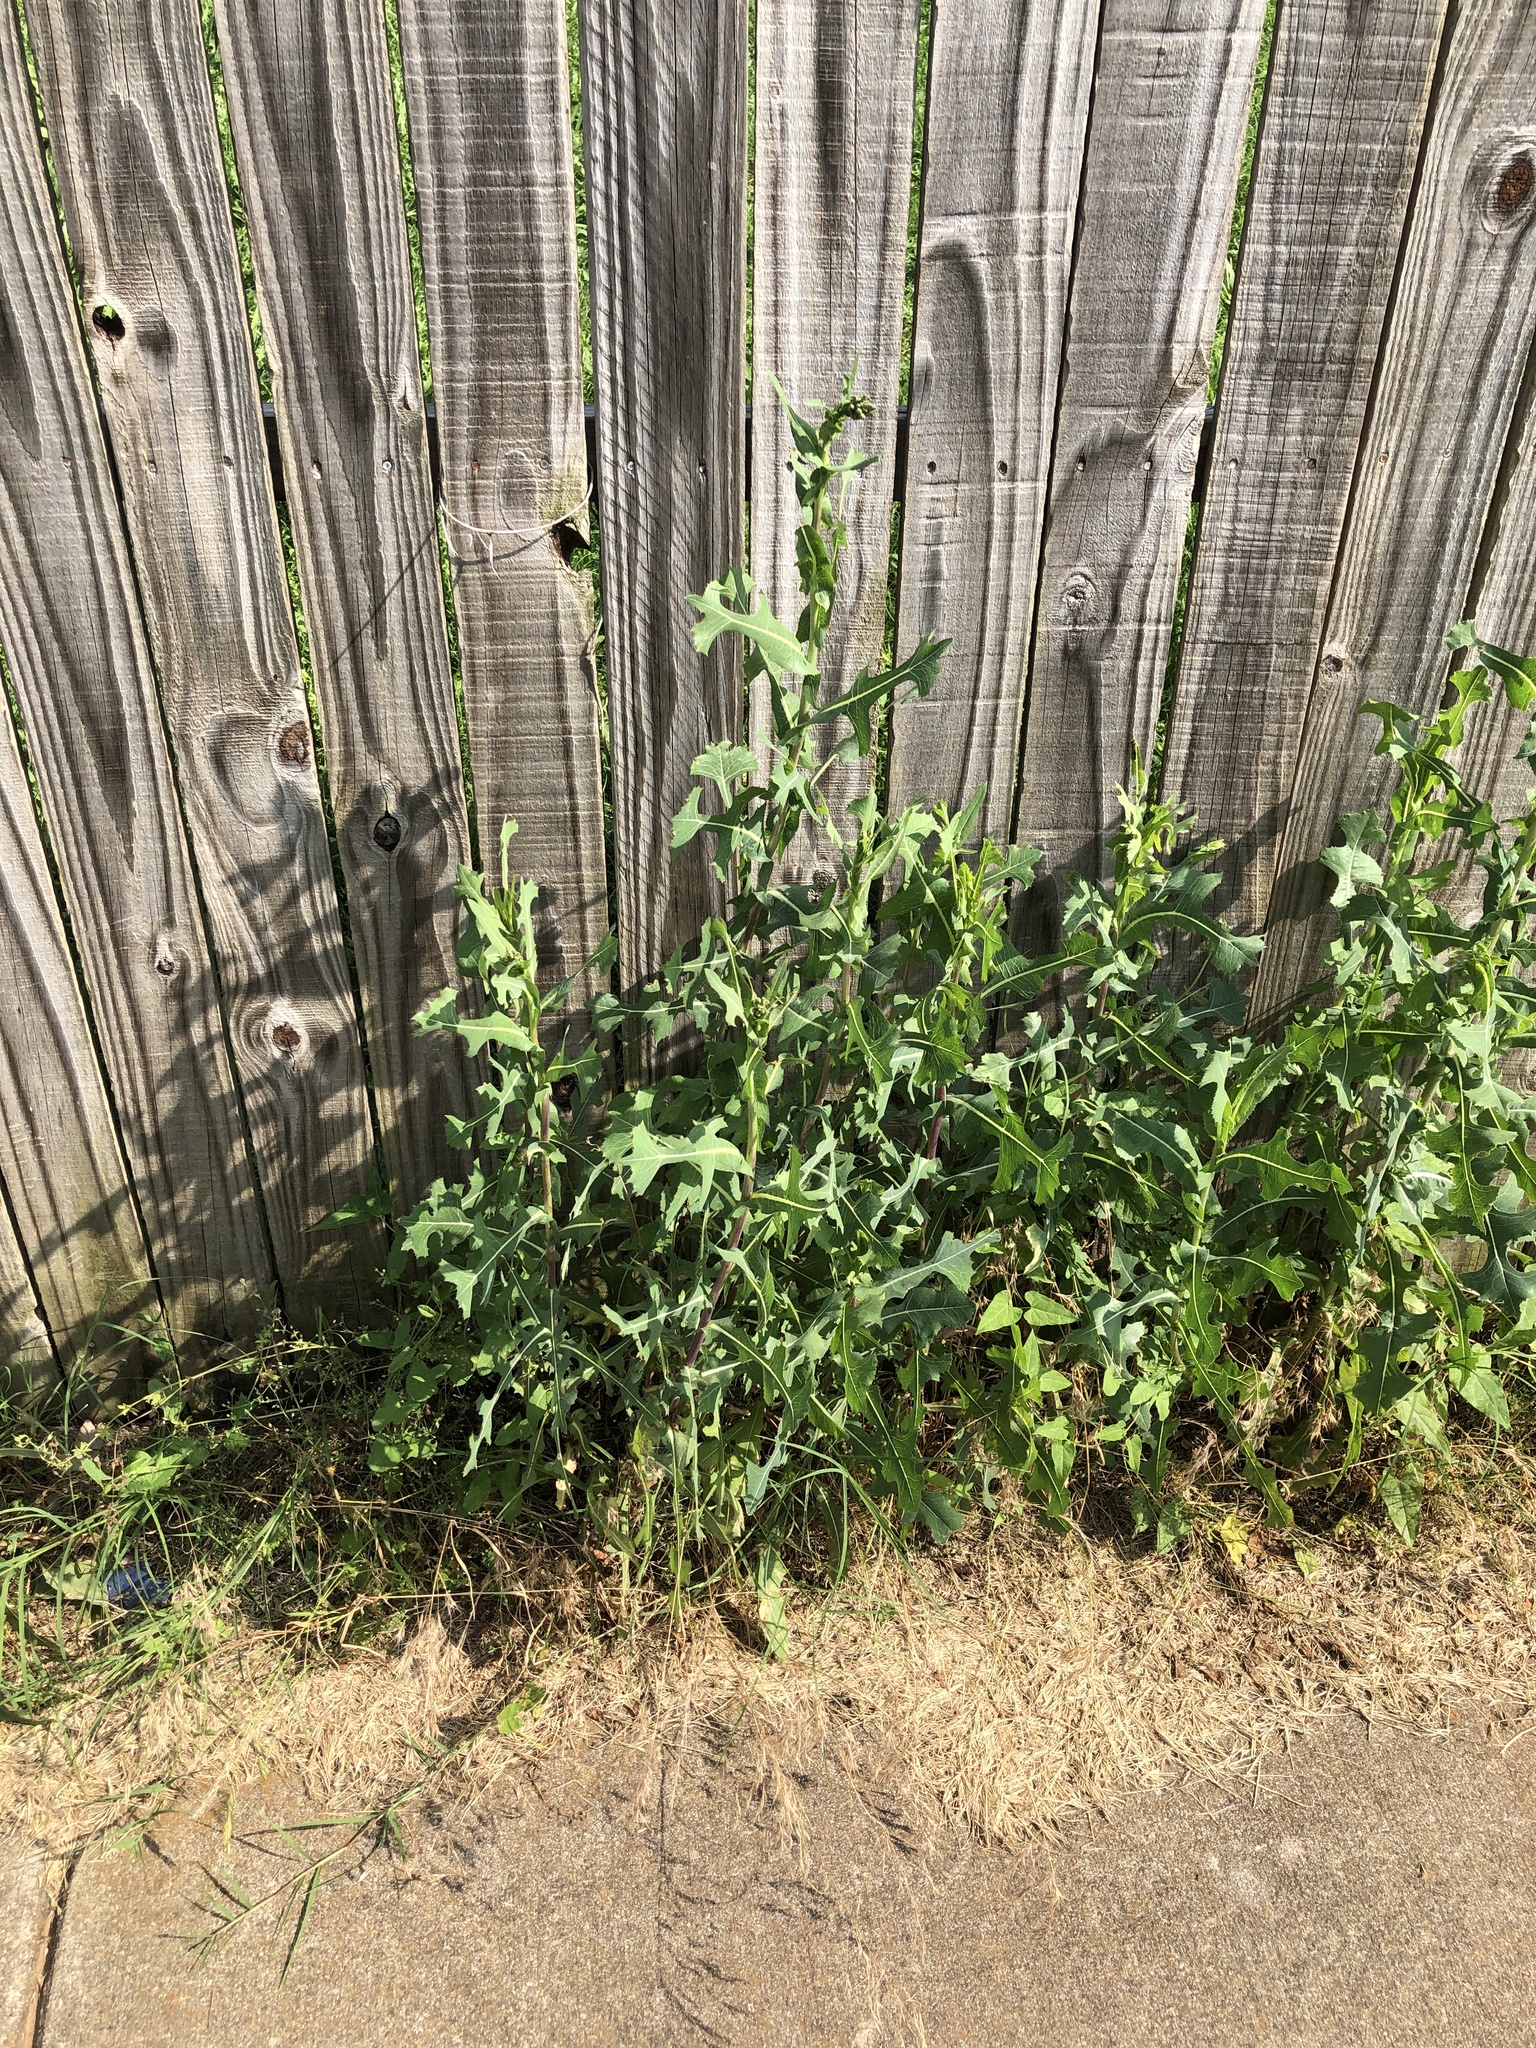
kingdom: Plantae
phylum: Tracheophyta
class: Magnoliopsida
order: Asterales
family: Asteraceae
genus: Lactuca
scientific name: Lactuca serriola
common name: Prickly lettuce
